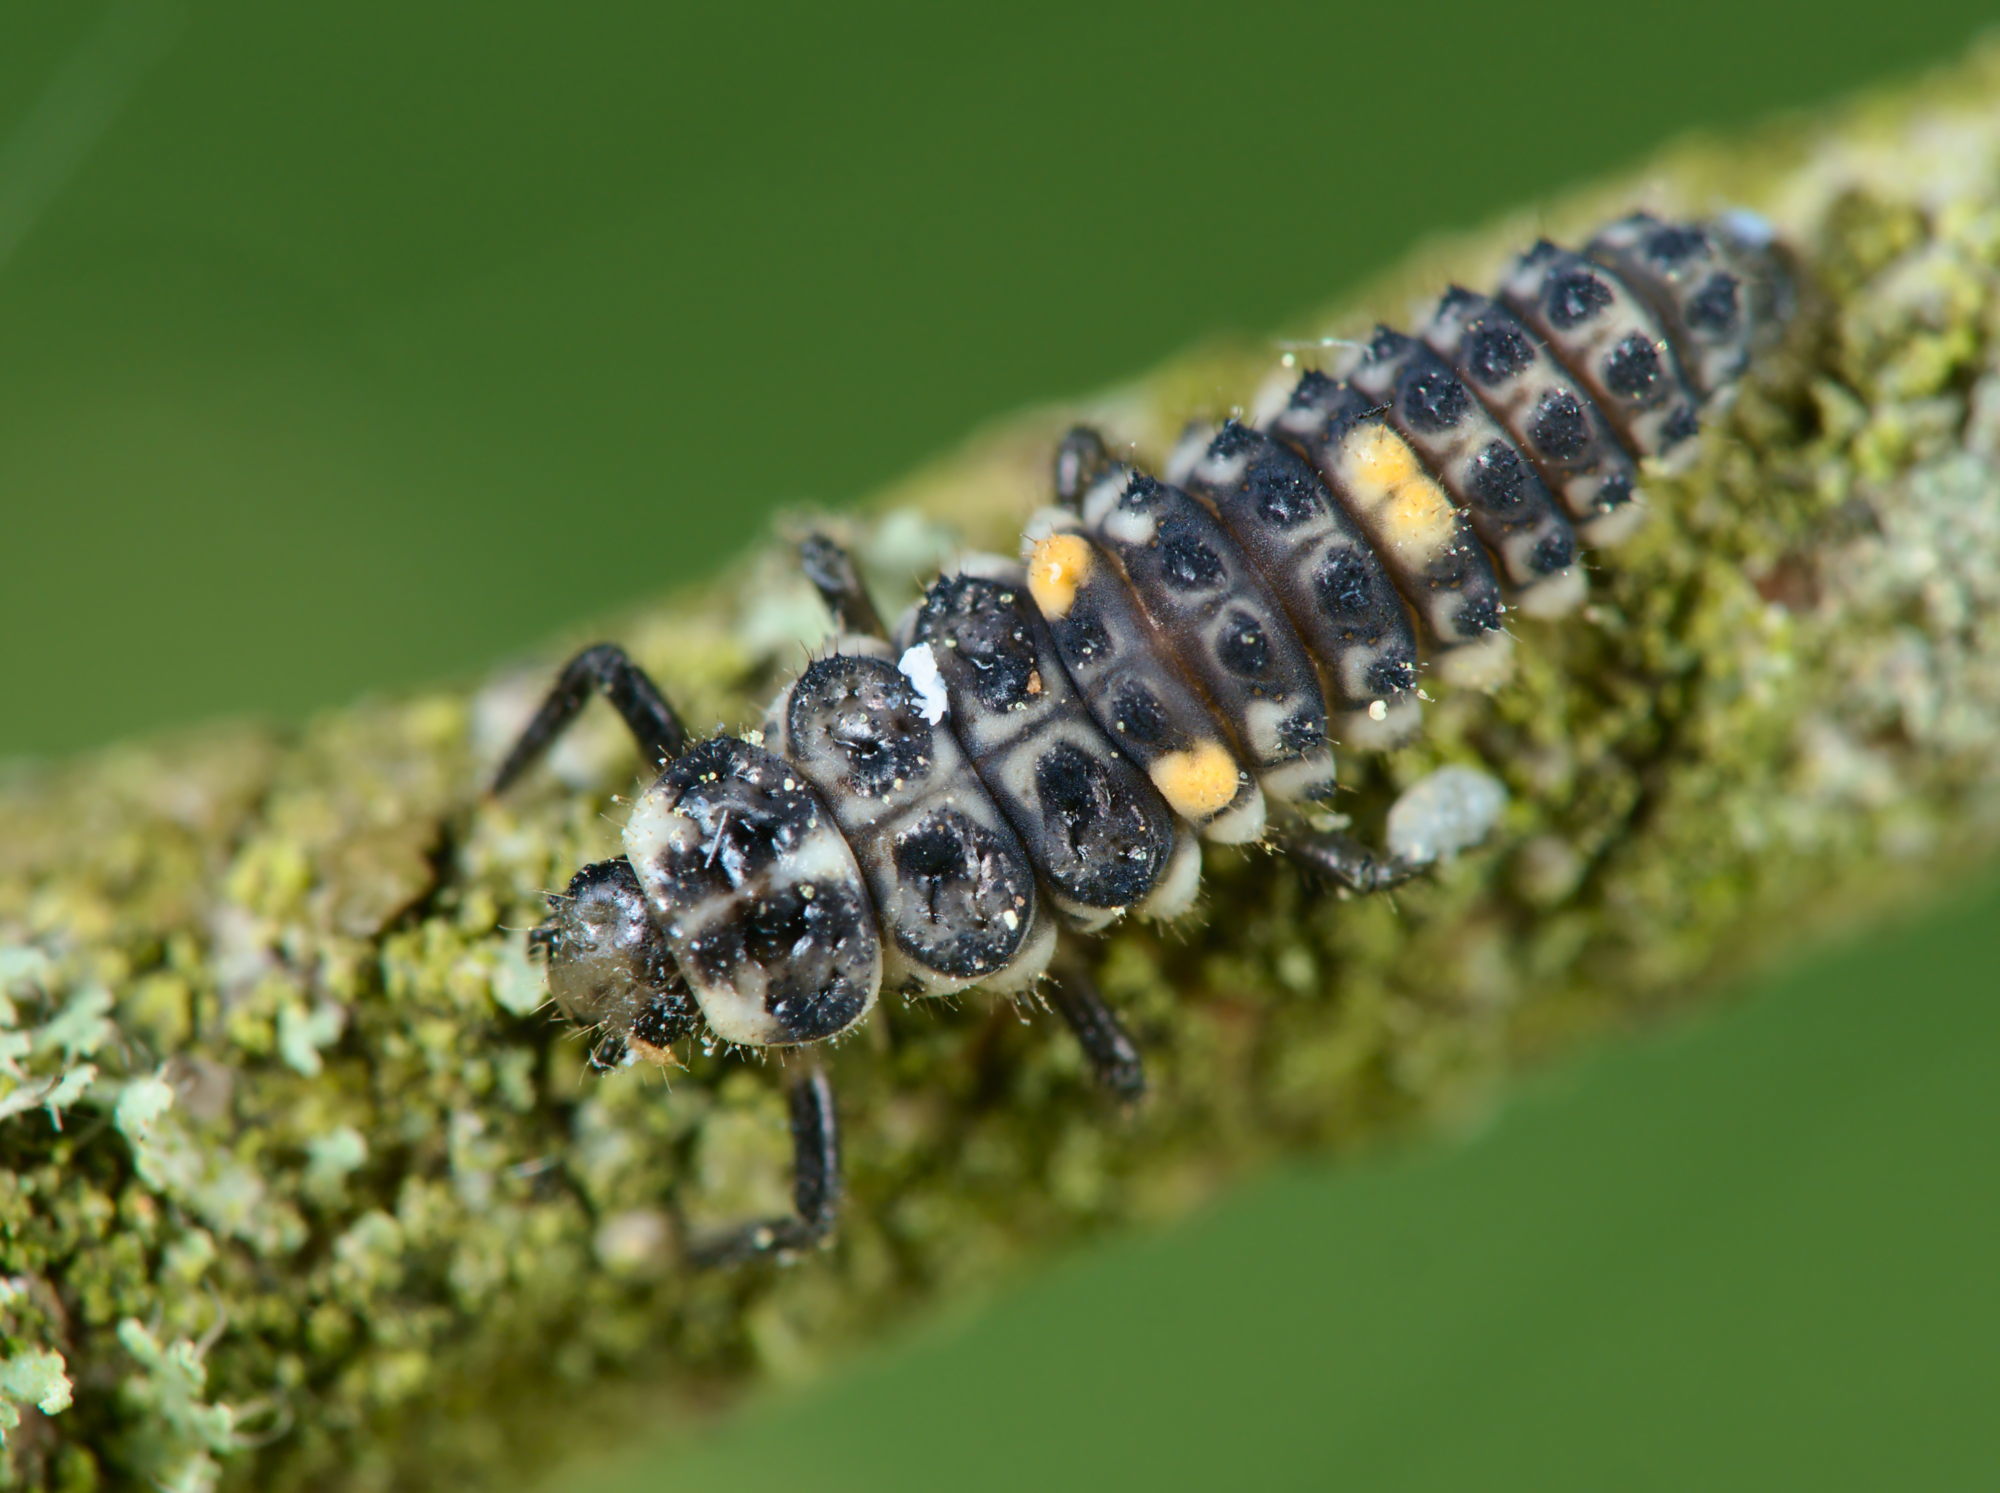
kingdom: Animalia
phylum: Arthropoda
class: Insecta
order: Coleoptera
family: Coccinellidae
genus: Adalia
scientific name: Adalia decempunctata
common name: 10-spot ladybird
